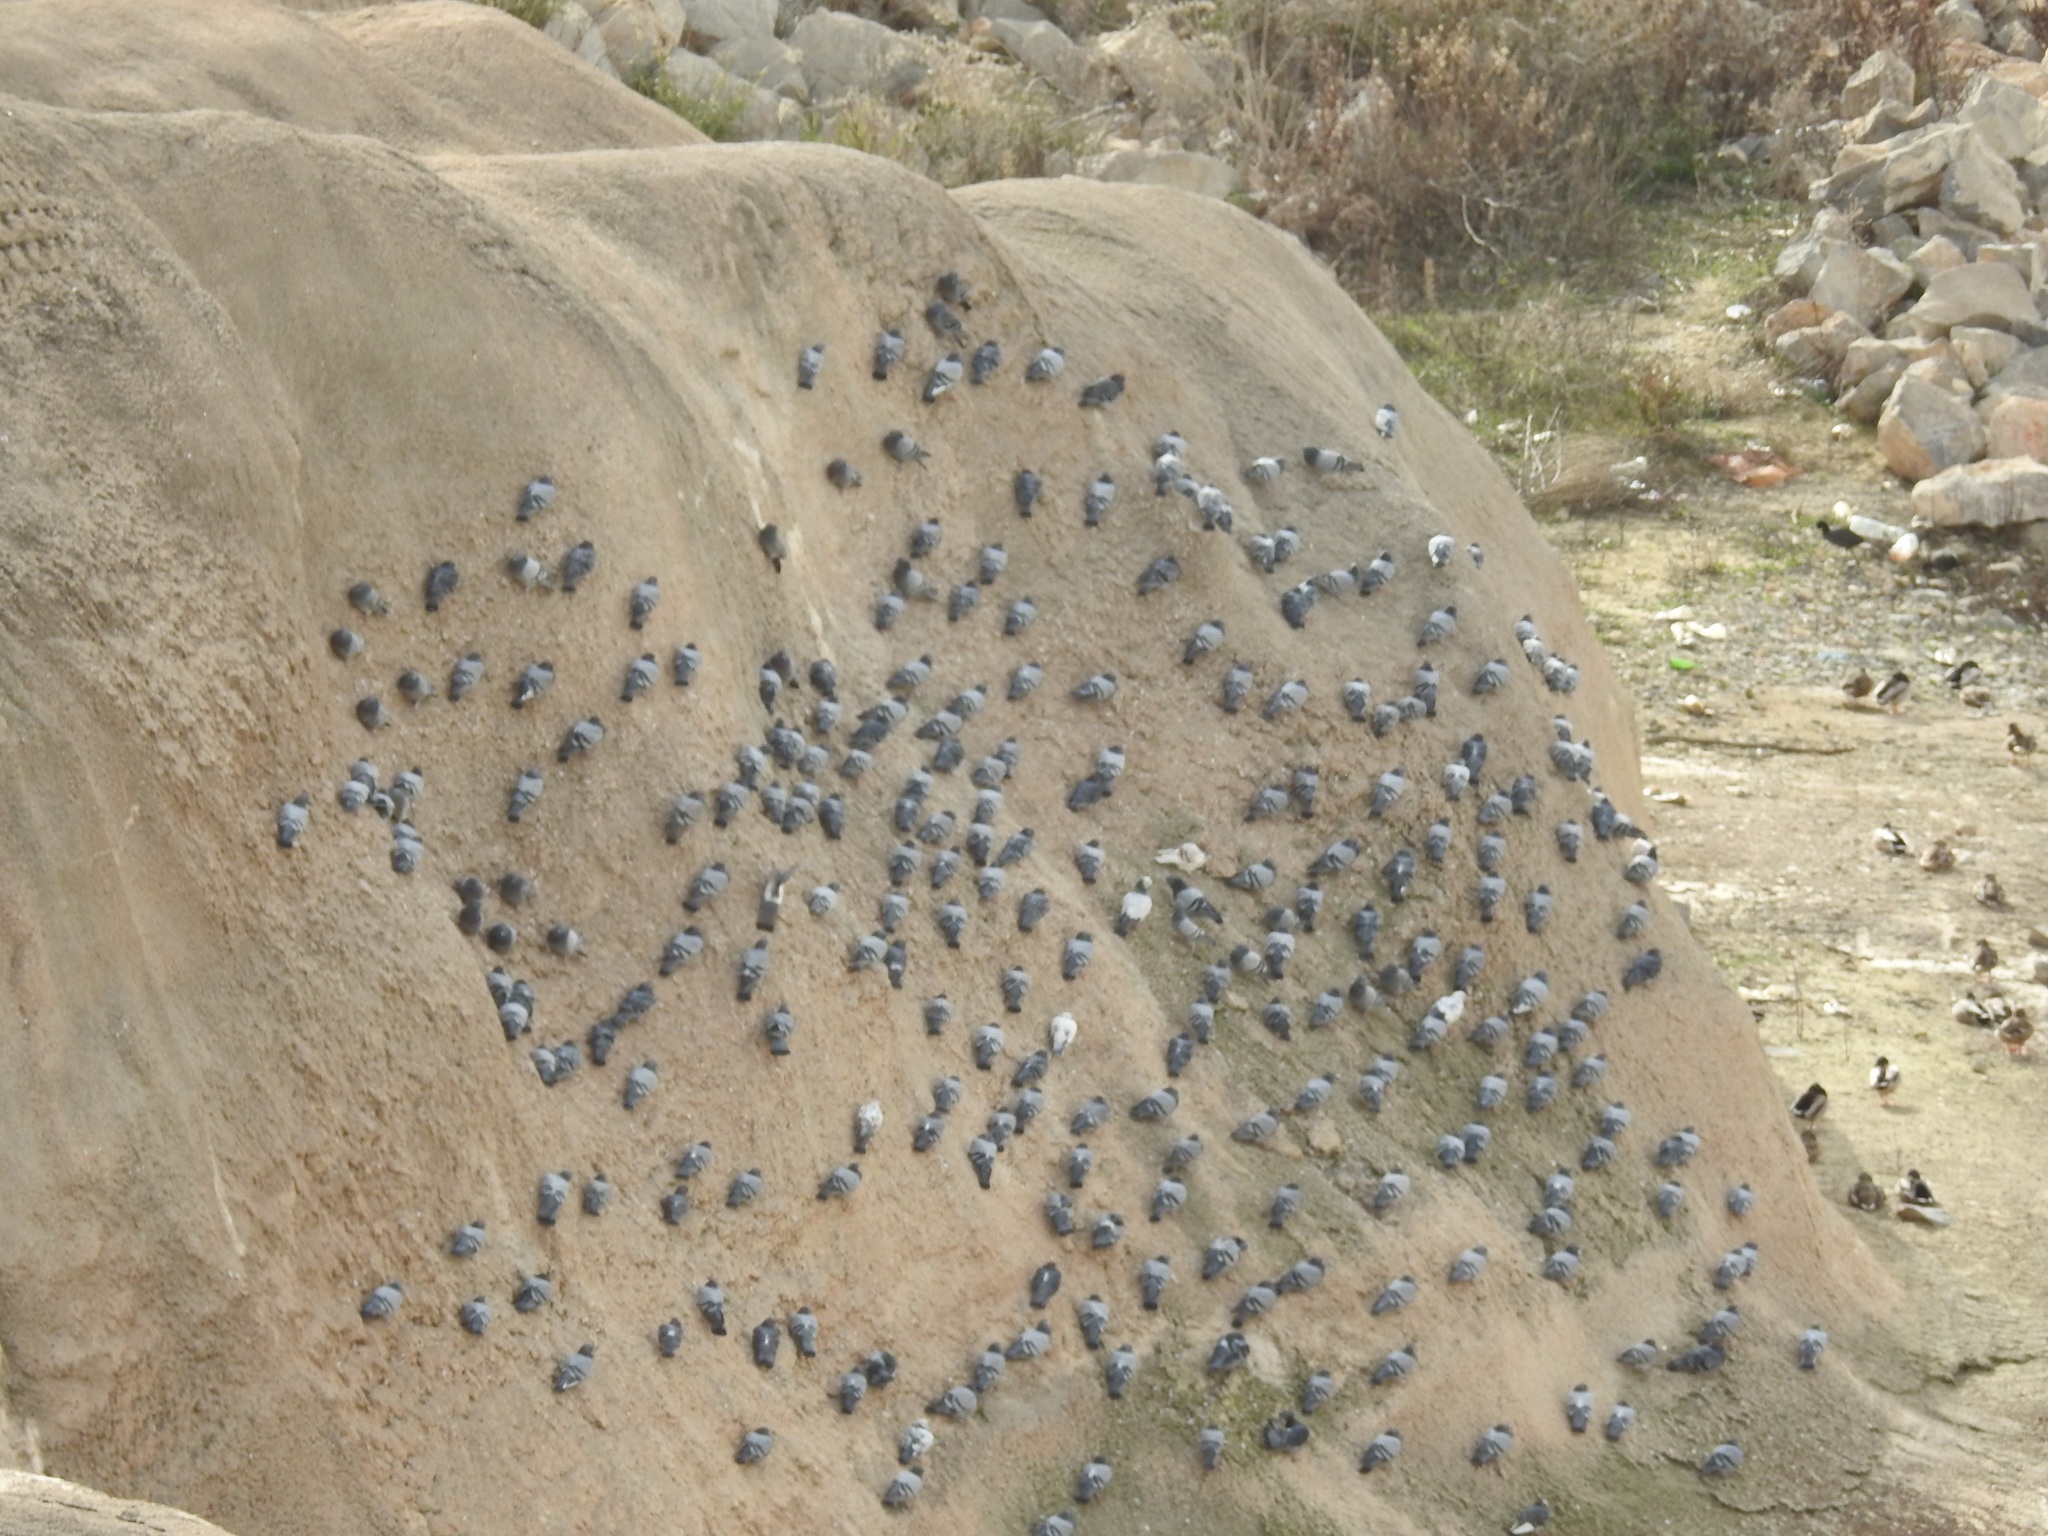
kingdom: Animalia
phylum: Chordata
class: Aves
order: Columbiformes
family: Columbidae
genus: Columba
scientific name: Columba livia
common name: Rock pigeon
